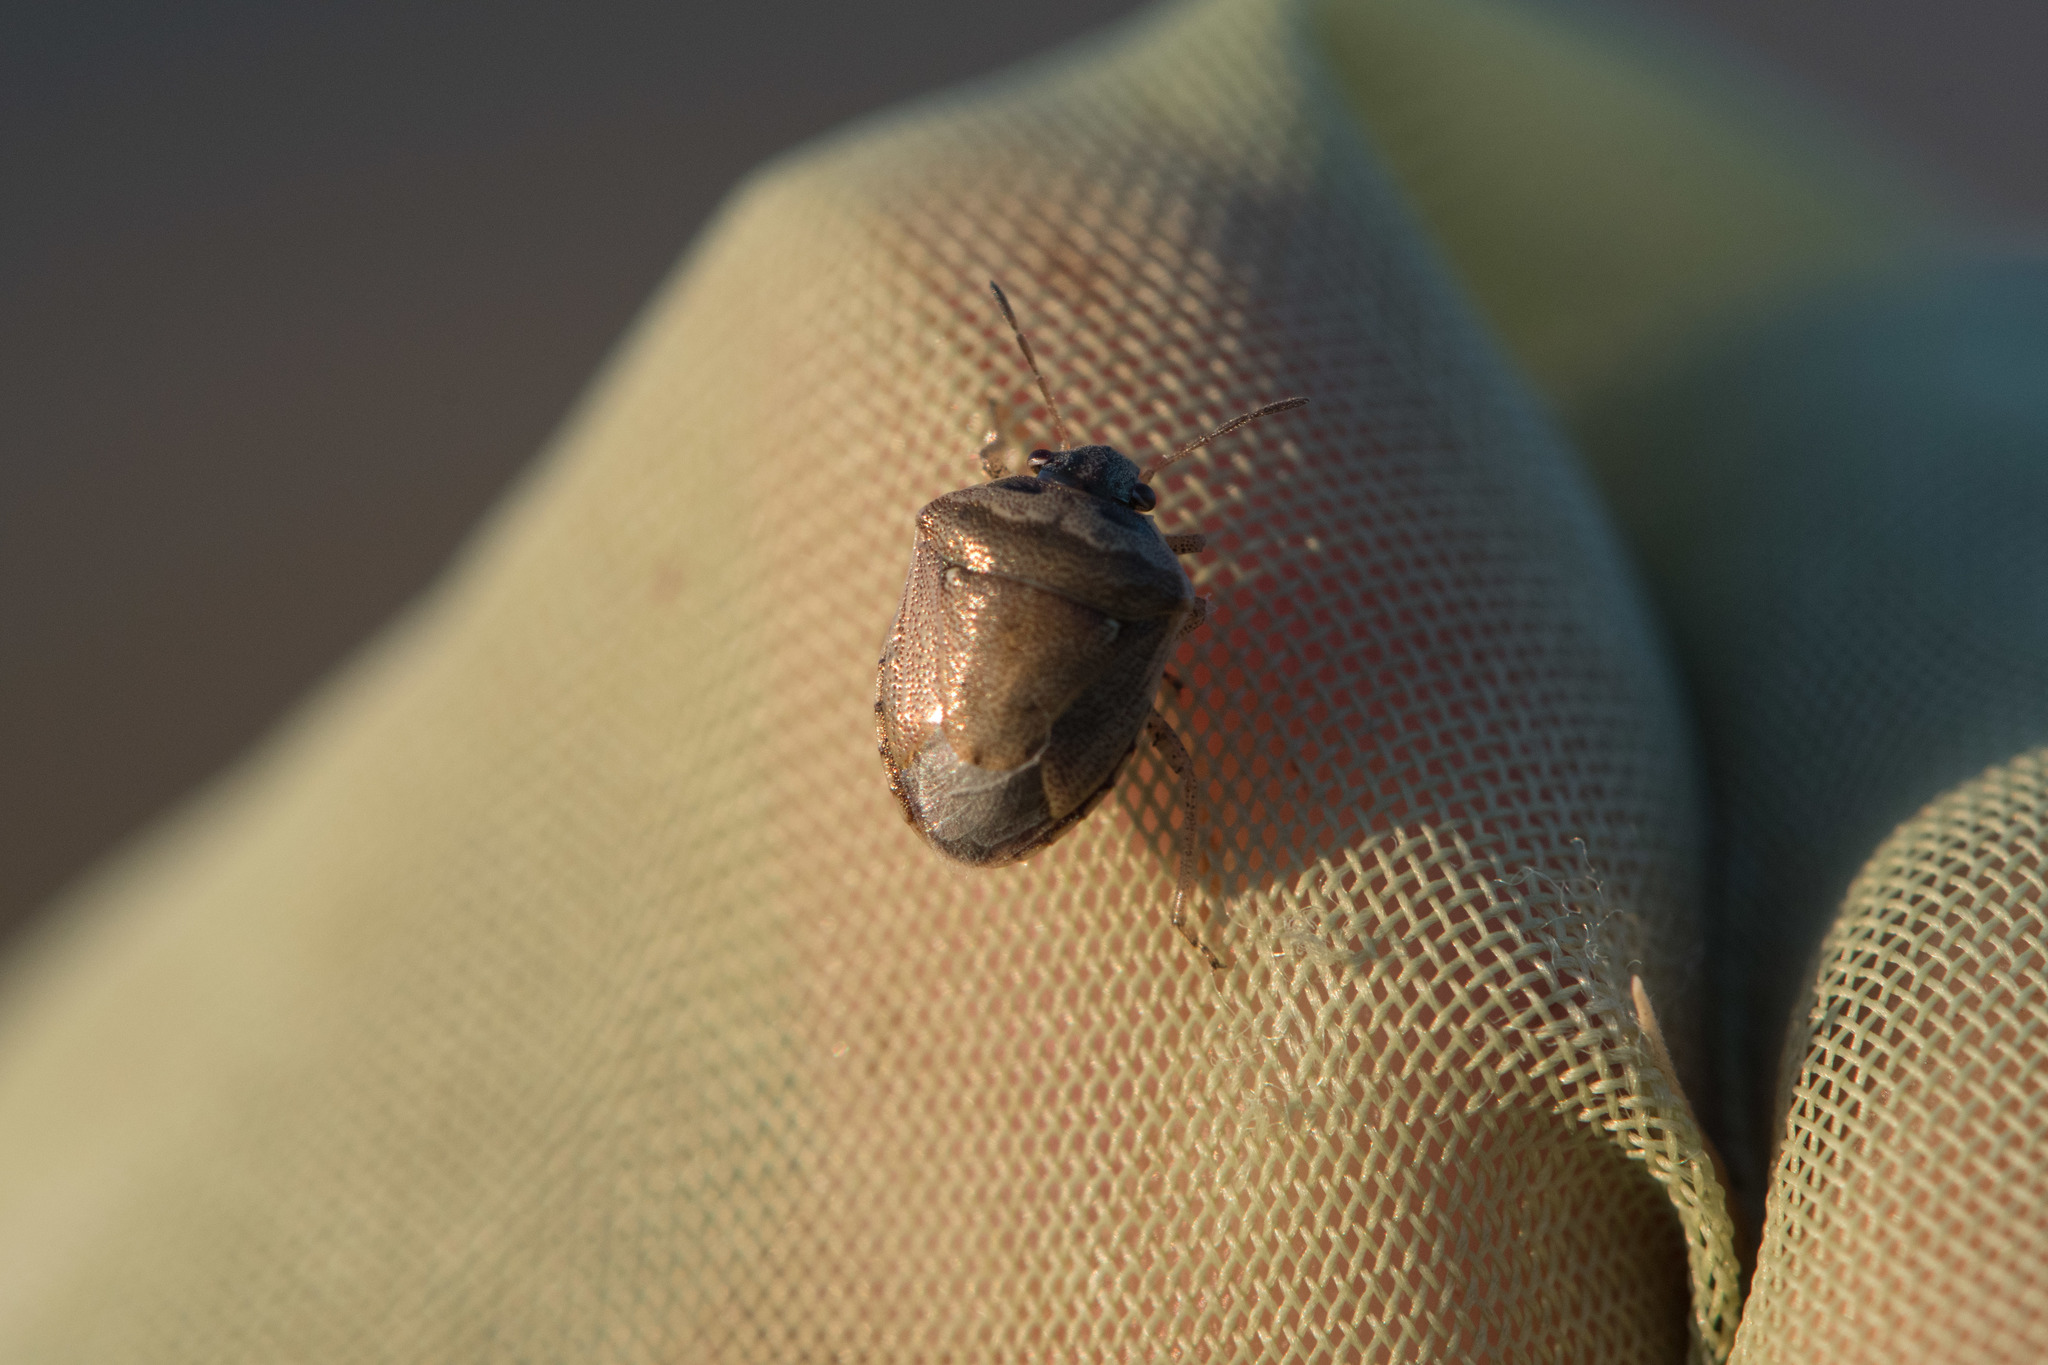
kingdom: Animalia
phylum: Arthropoda
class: Insecta
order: Hemiptera
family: Pentatomidae
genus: Eysarcoris
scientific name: Eysarcoris ventralis
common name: White-spotted stink bug
